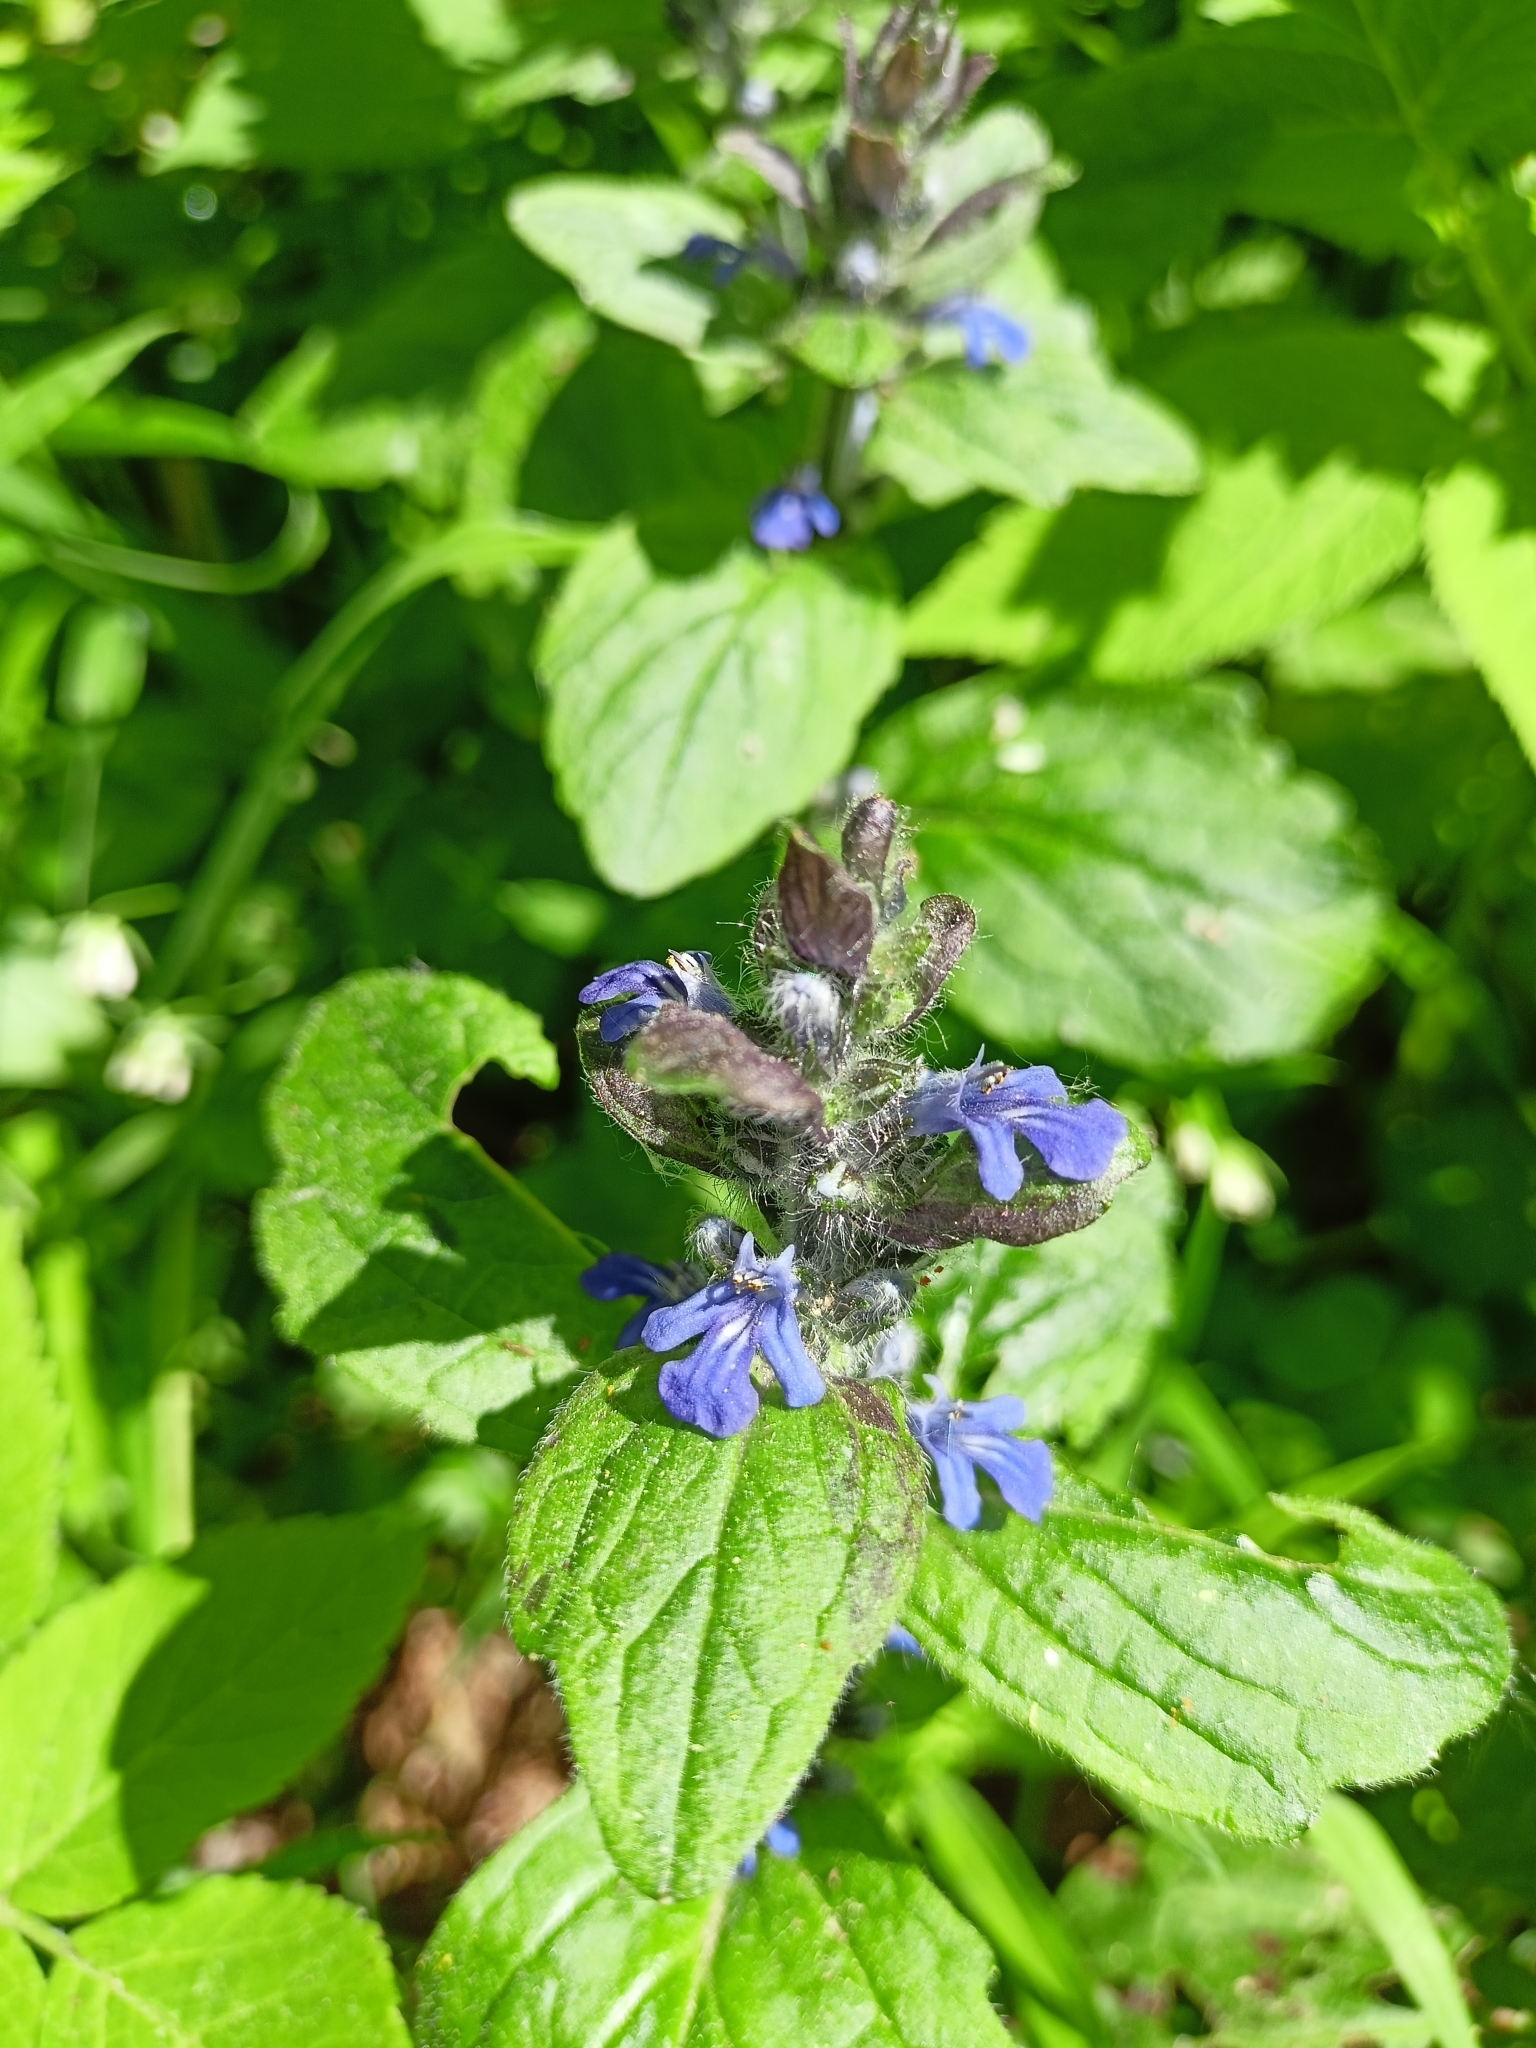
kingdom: Plantae
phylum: Tracheophyta
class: Magnoliopsida
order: Lamiales
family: Lamiaceae
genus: Ajuga
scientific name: Ajuga reptans
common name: Bugle
